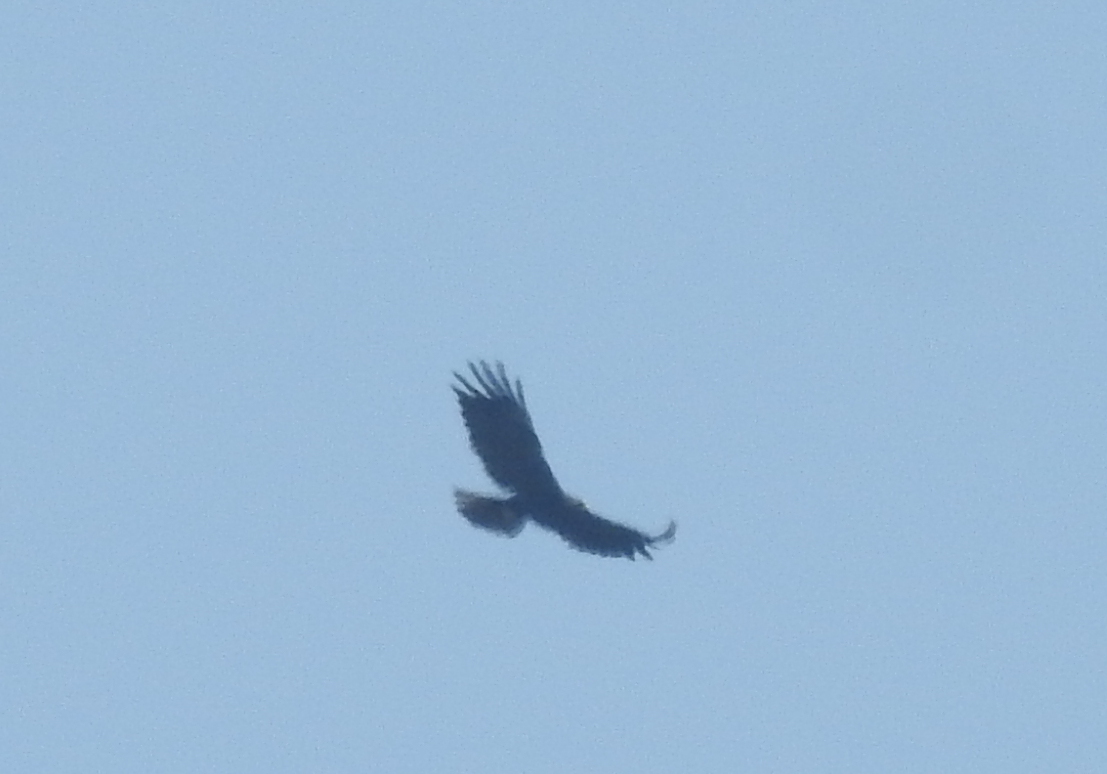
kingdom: Animalia
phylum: Chordata
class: Aves
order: Accipitriformes
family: Accipitridae
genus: Ictinaetus
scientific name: Ictinaetus malayensis
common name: Black eagle
